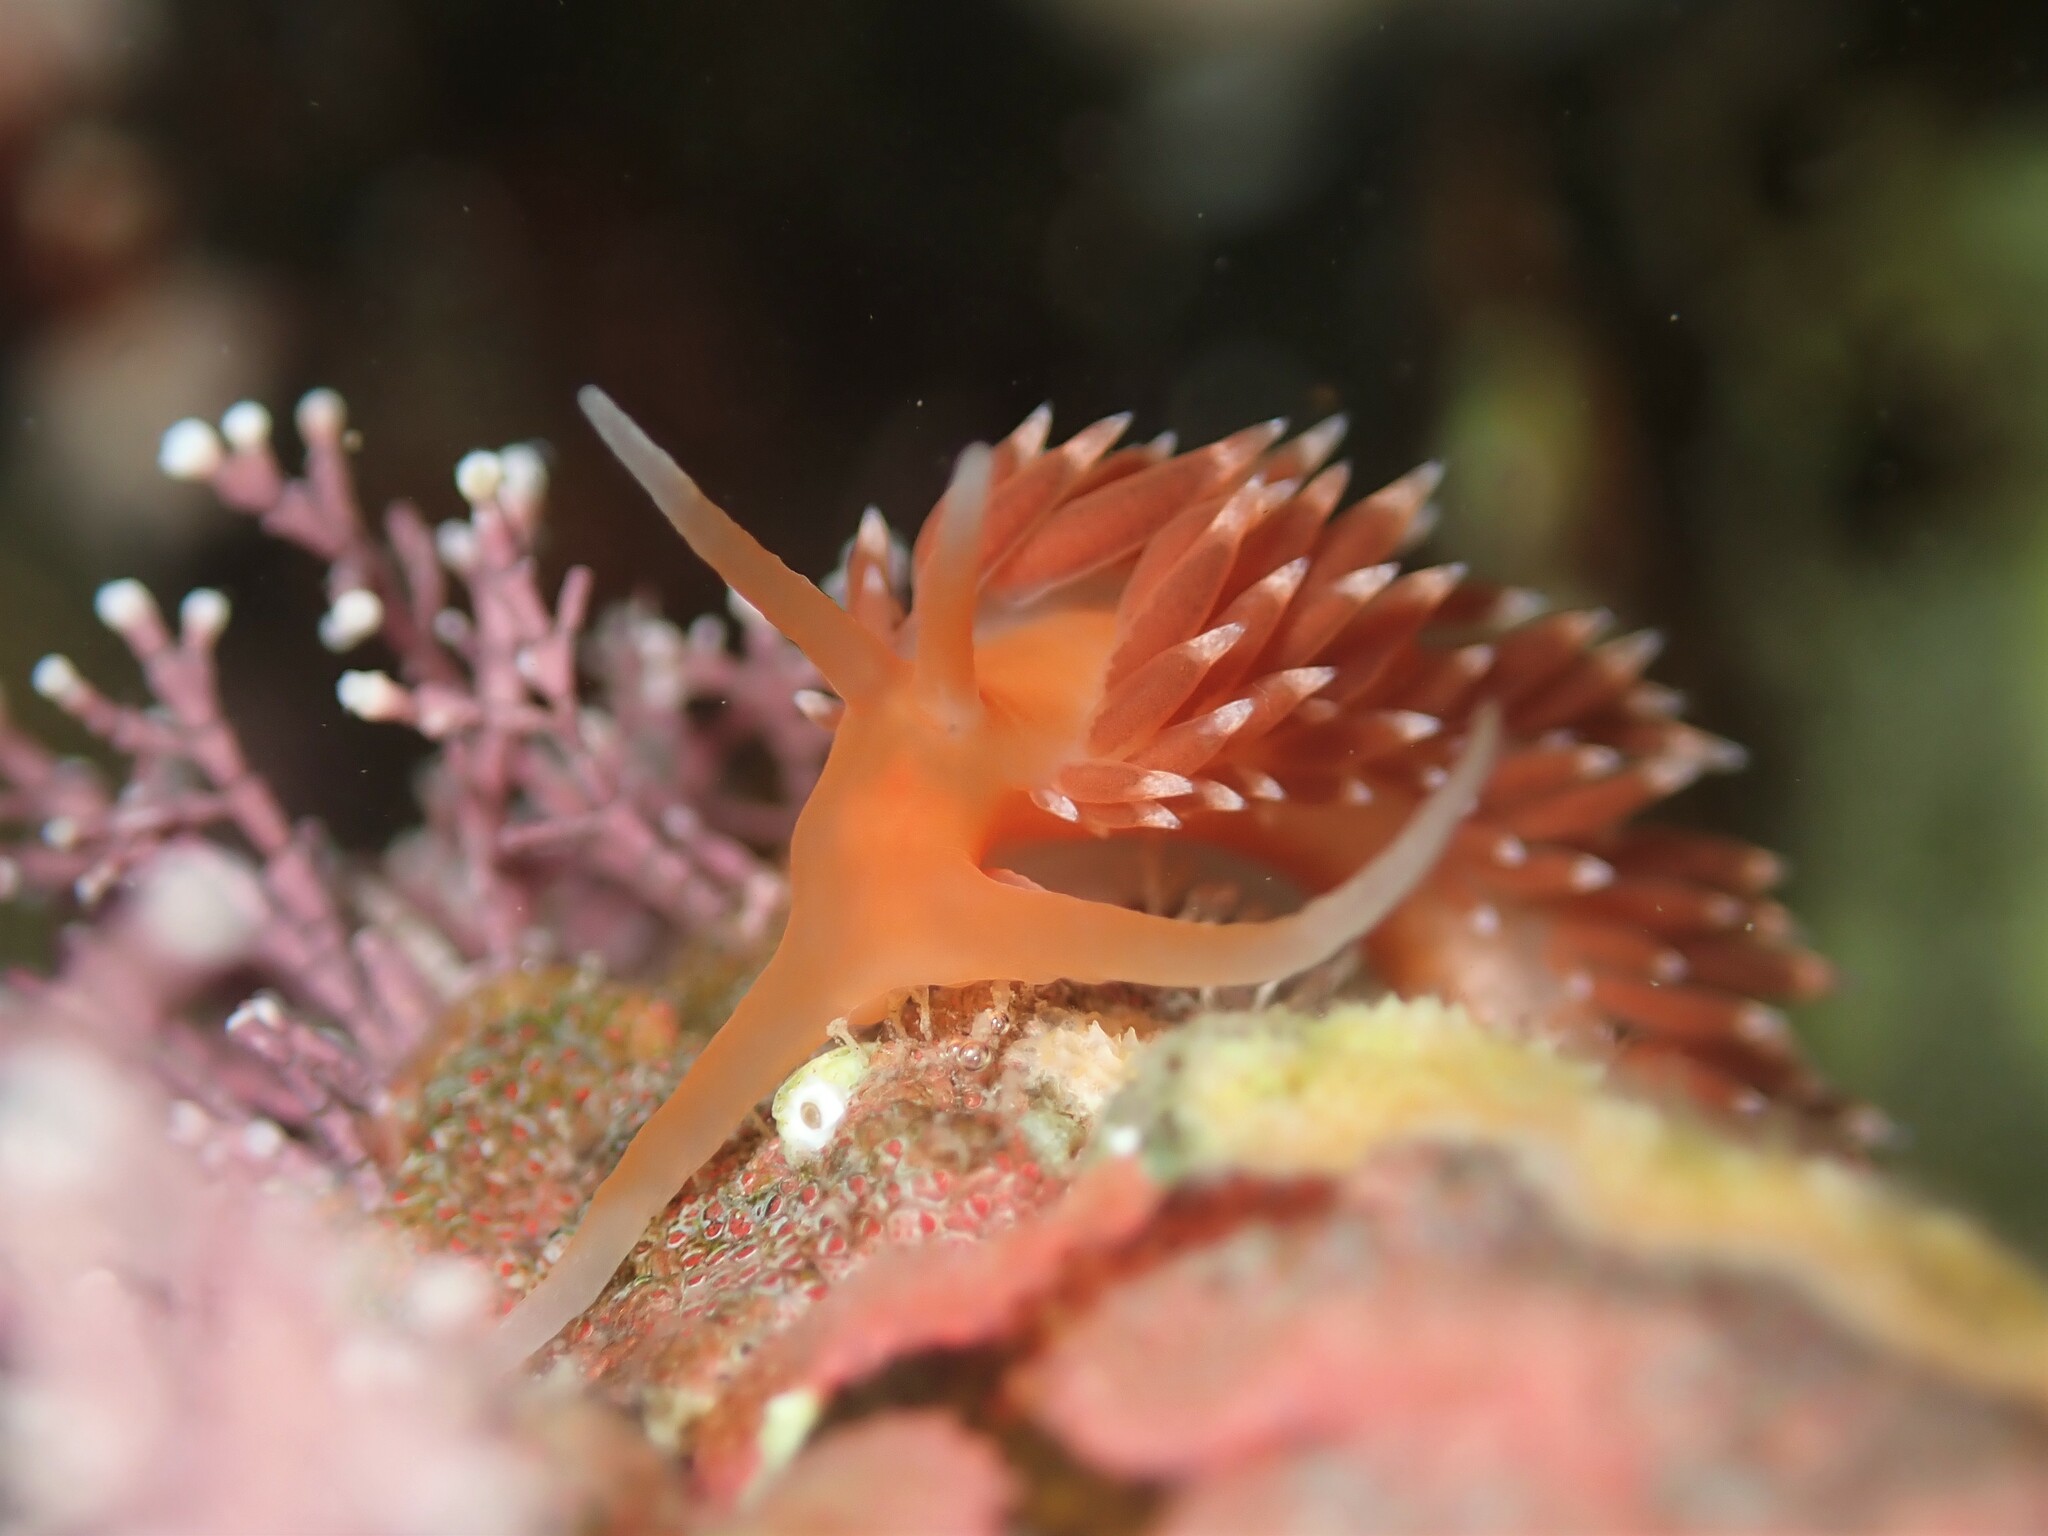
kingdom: Animalia
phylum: Mollusca
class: Gastropoda
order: Nudibranchia
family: Facelinidae
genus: Phidiana
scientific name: Phidiana milleri
